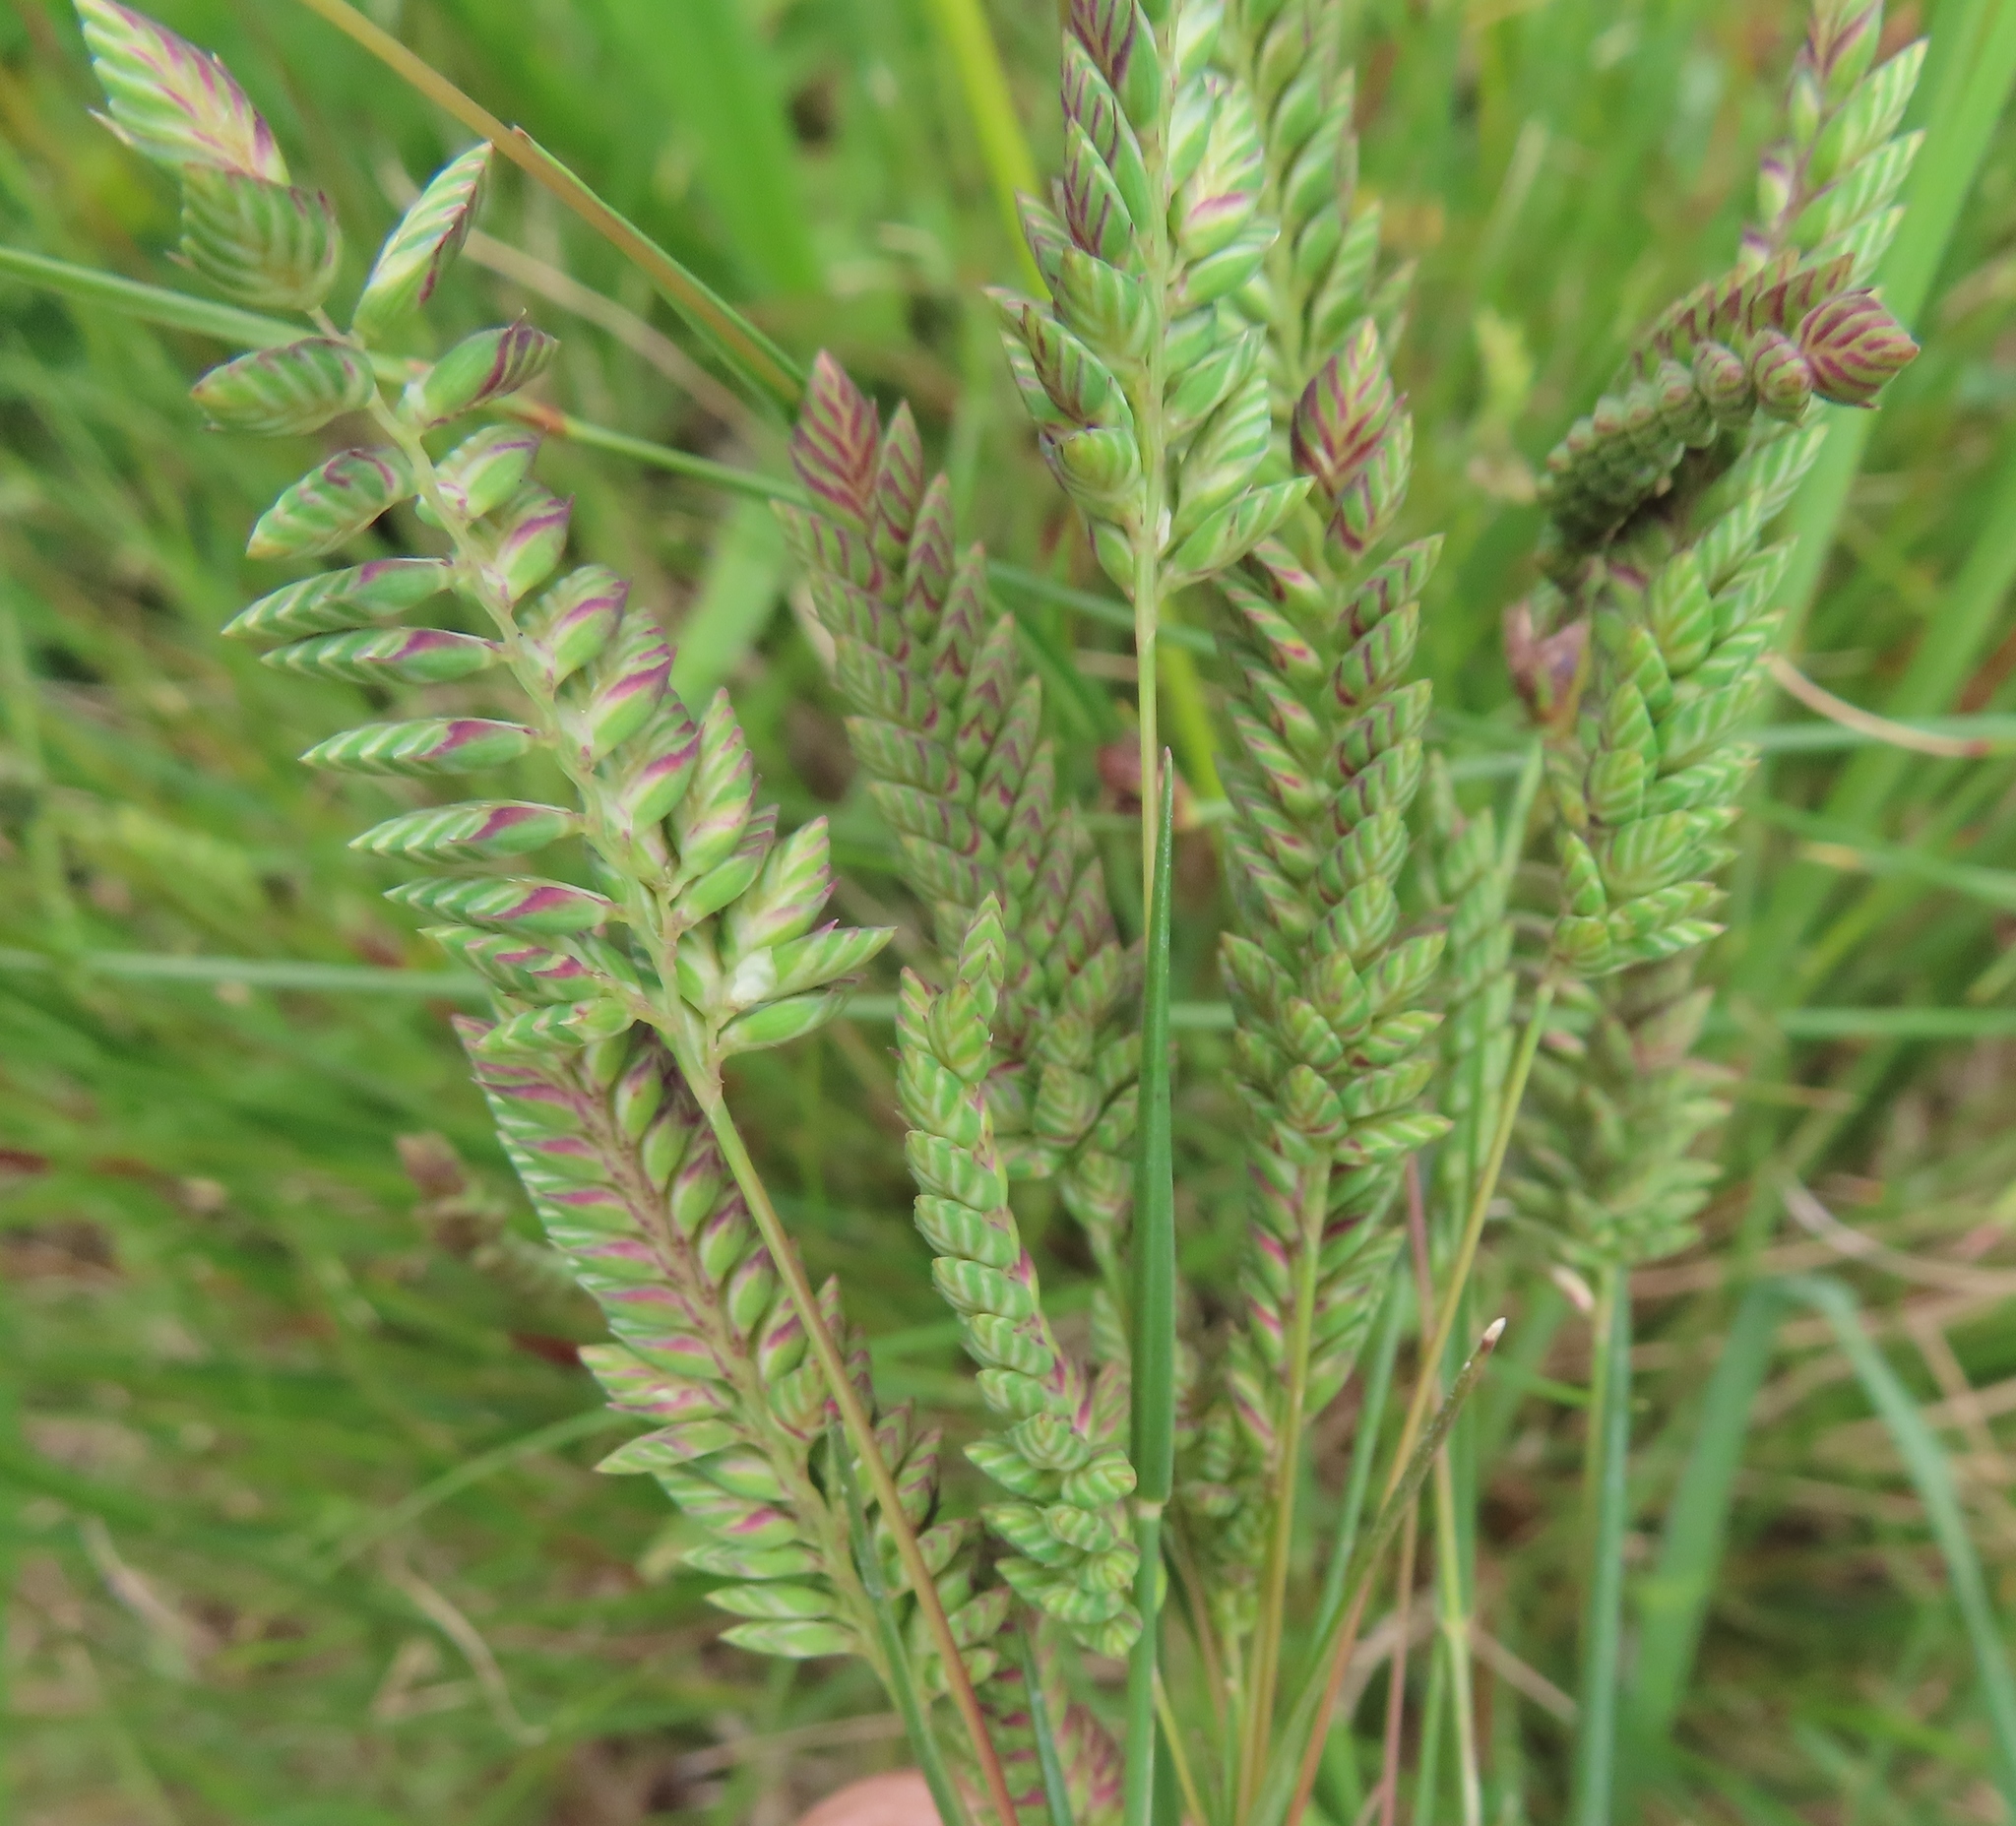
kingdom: Plantae
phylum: Tracheophyta
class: Liliopsida
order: Poales
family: Poaceae
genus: Tribolium
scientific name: Tribolium uniolae
